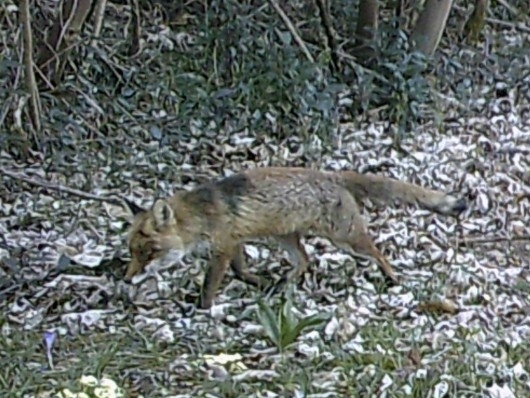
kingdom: Animalia
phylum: Chordata
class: Mammalia
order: Carnivora
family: Canidae
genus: Vulpes
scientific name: Vulpes vulpes
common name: Red fox
